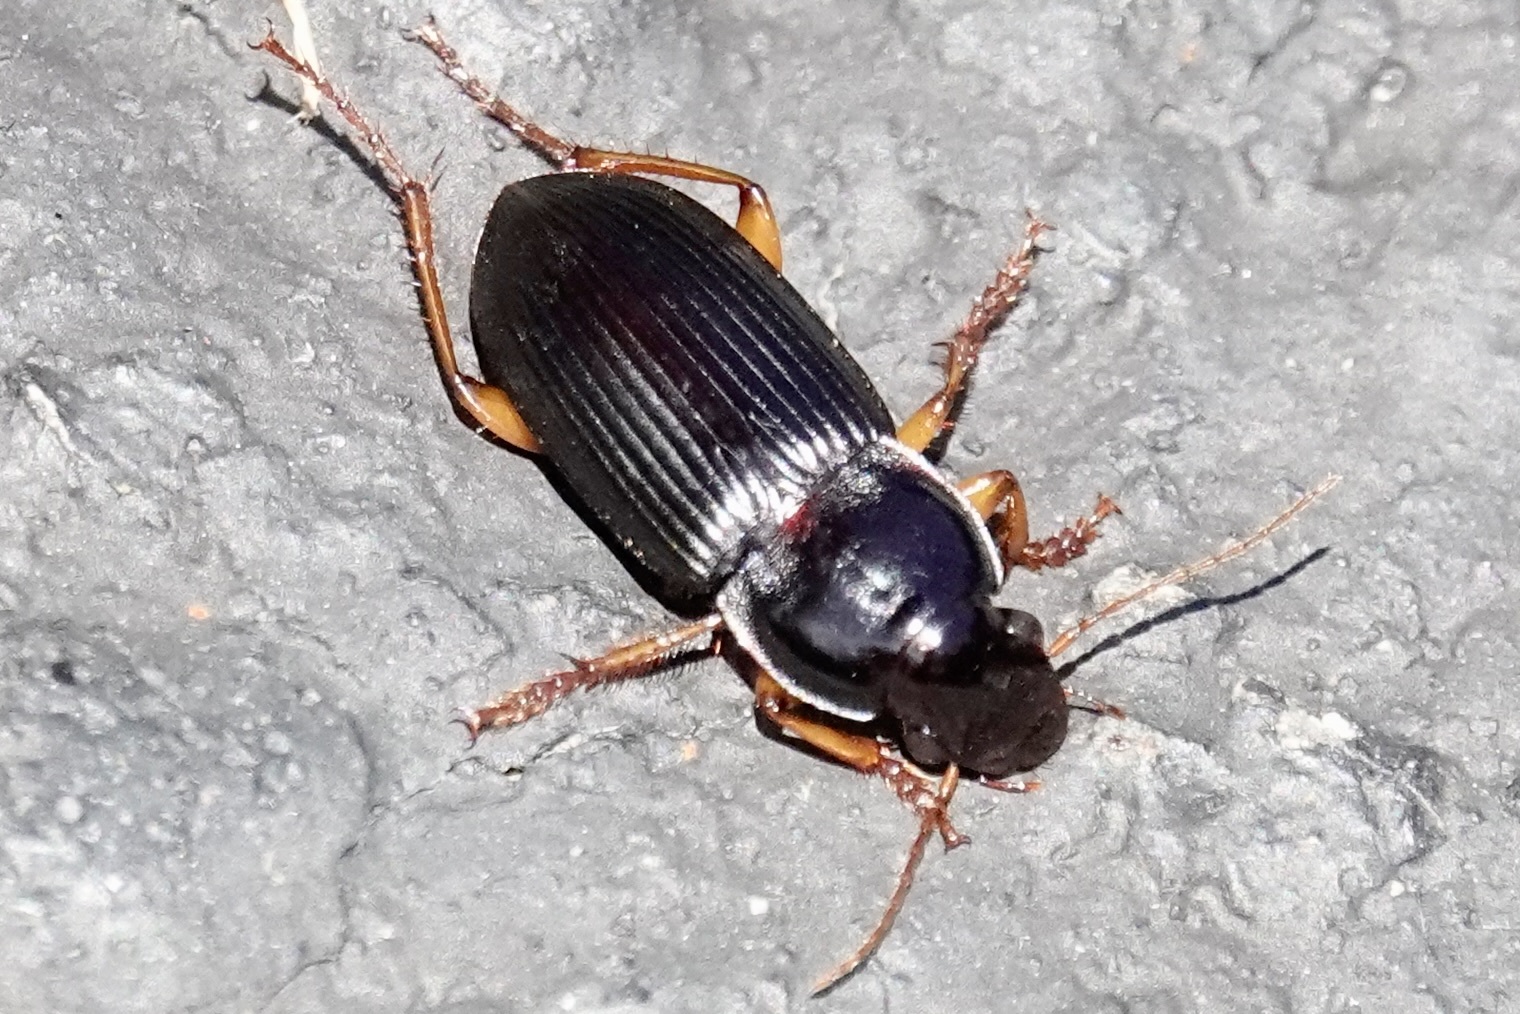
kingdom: Animalia
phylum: Arthropoda
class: Insecta
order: Coleoptera
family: Carabidae
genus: Harpalus
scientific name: Harpalus pensylvanicus
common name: Pennsylvania dingy ground beetle
